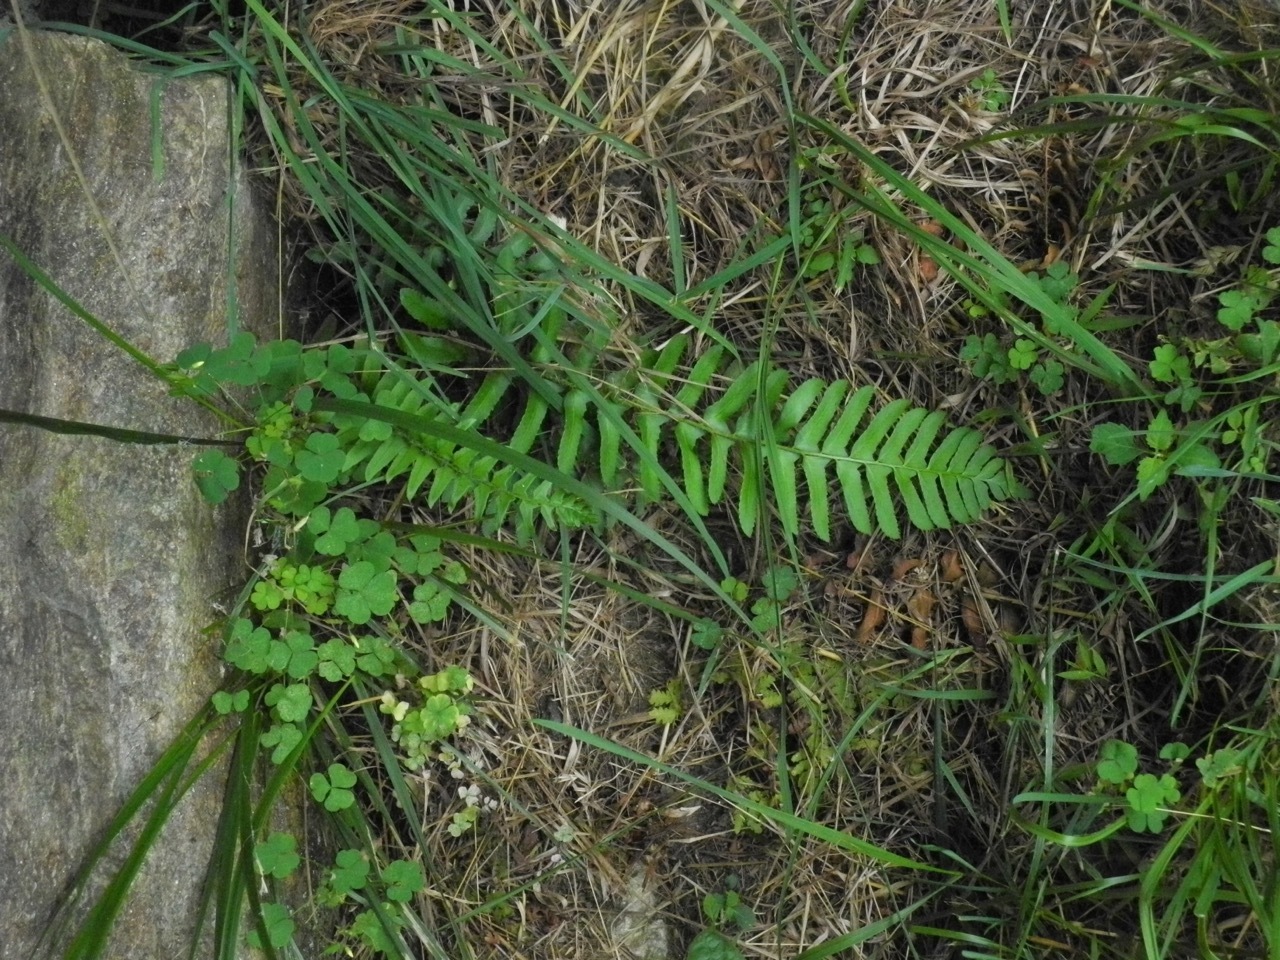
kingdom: Plantae
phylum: Tracheophyta
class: Polypodiopsida
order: Polypodiales
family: Dryopteridaceae
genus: Polystichum
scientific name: Polystichum acrostichoides
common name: Christmas fern
